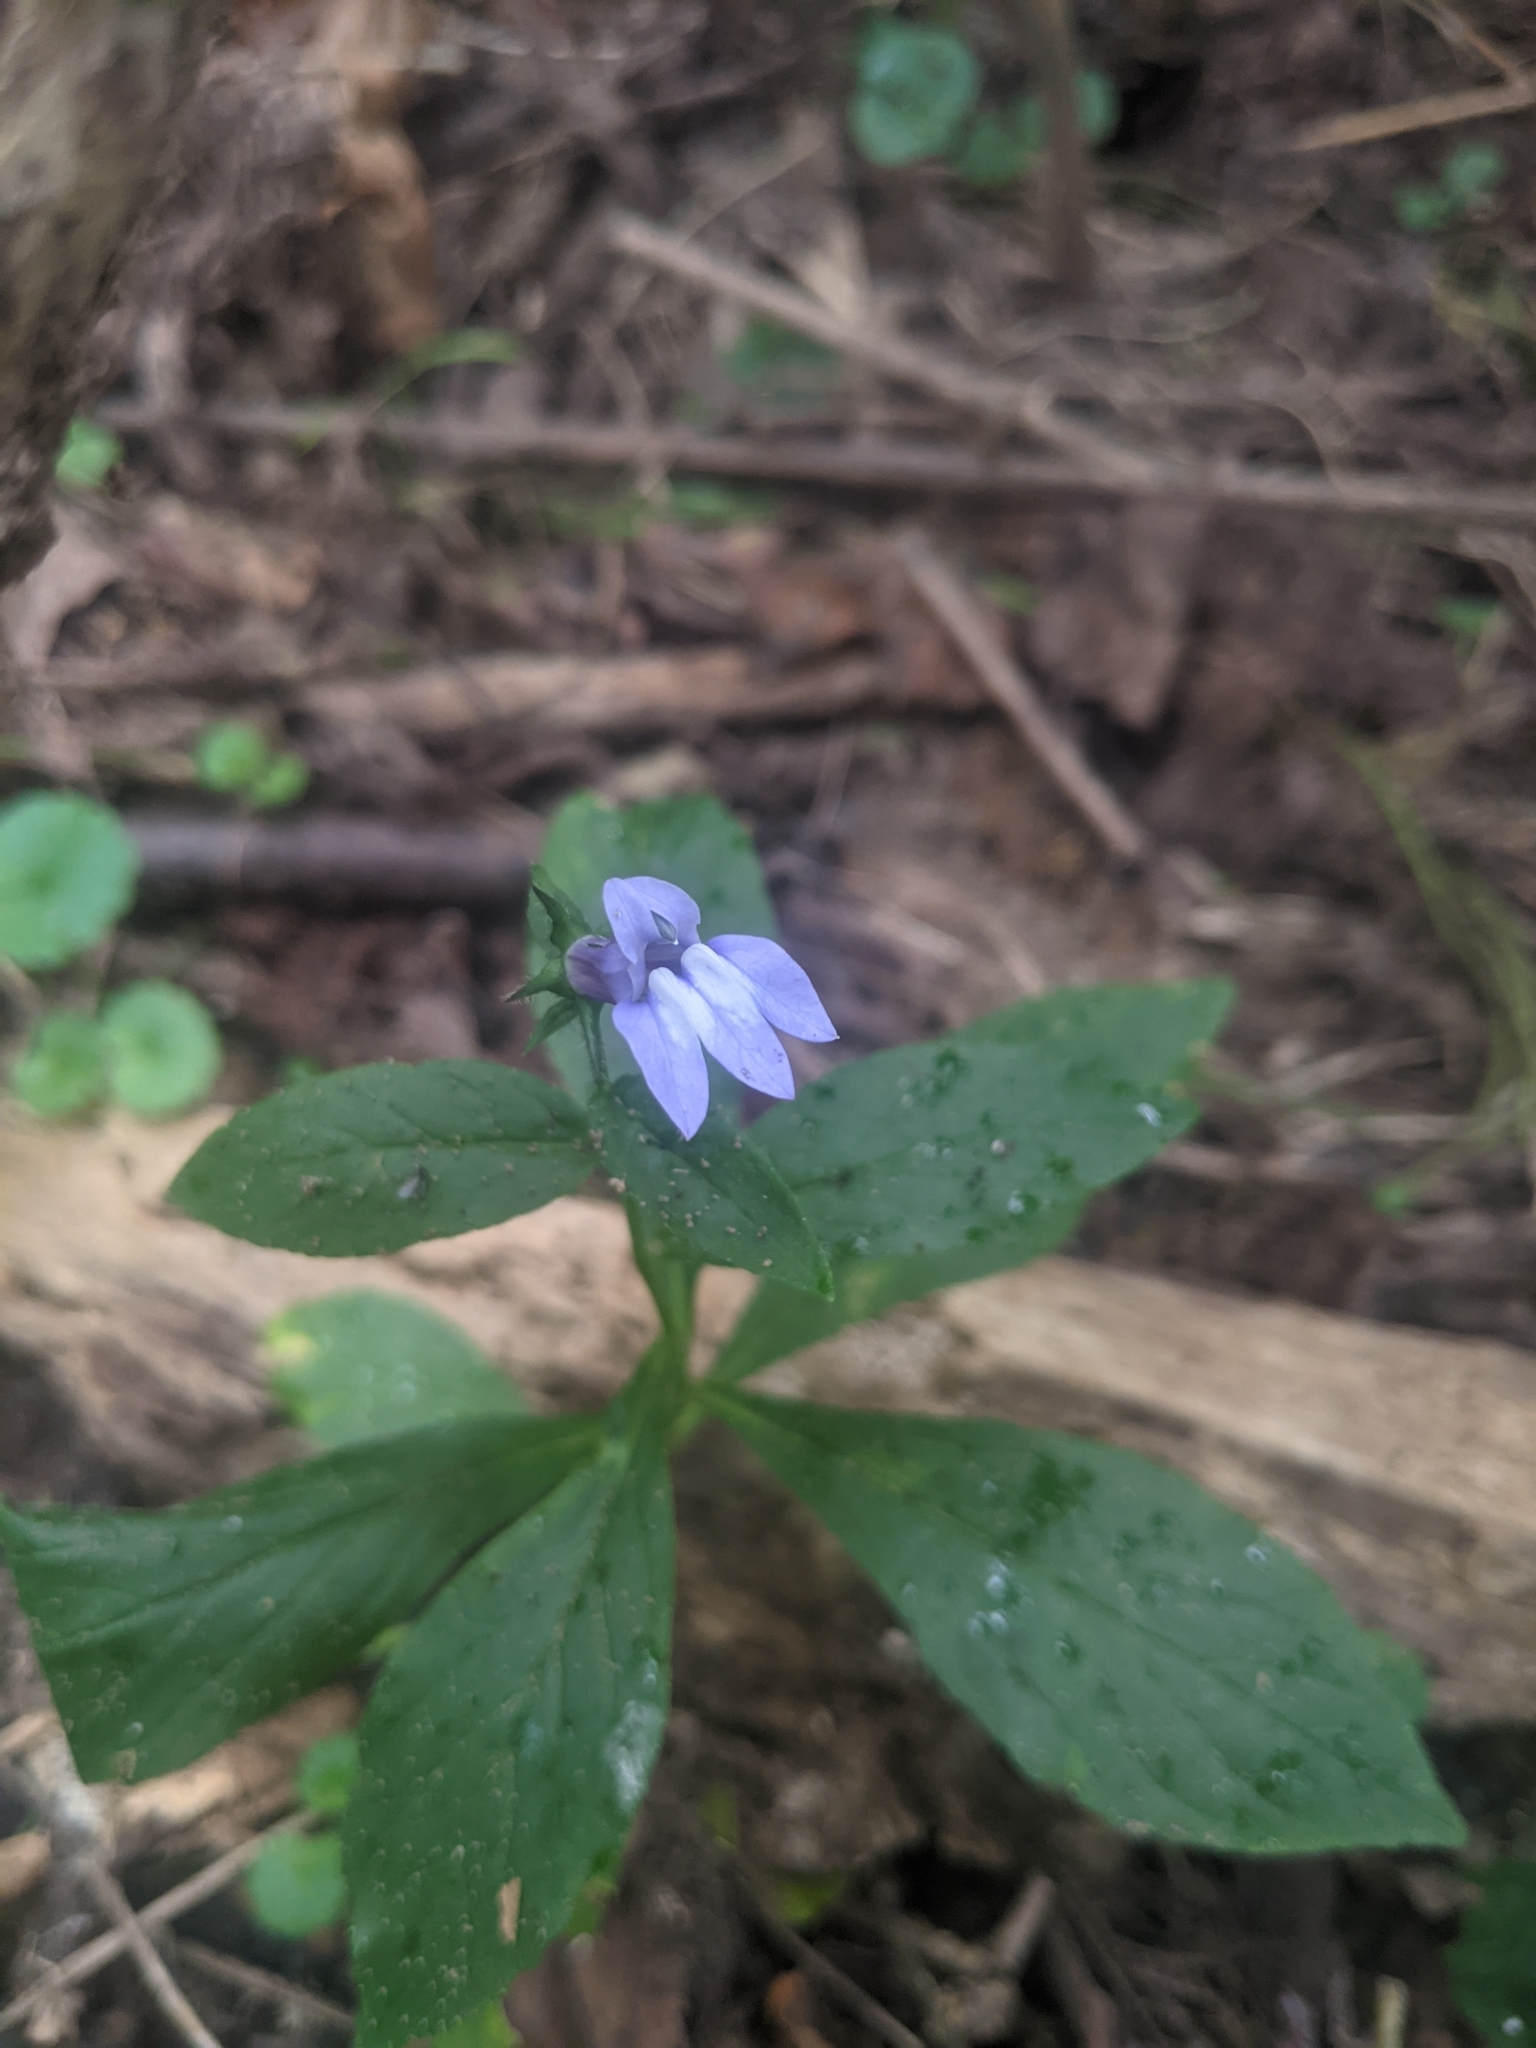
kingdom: Plantae
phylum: Tracheophyta
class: Magnoliopsida
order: Asterales
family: Campanulaceae
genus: Lobelia
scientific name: Lobelia siphilitica
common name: Great lobelia
